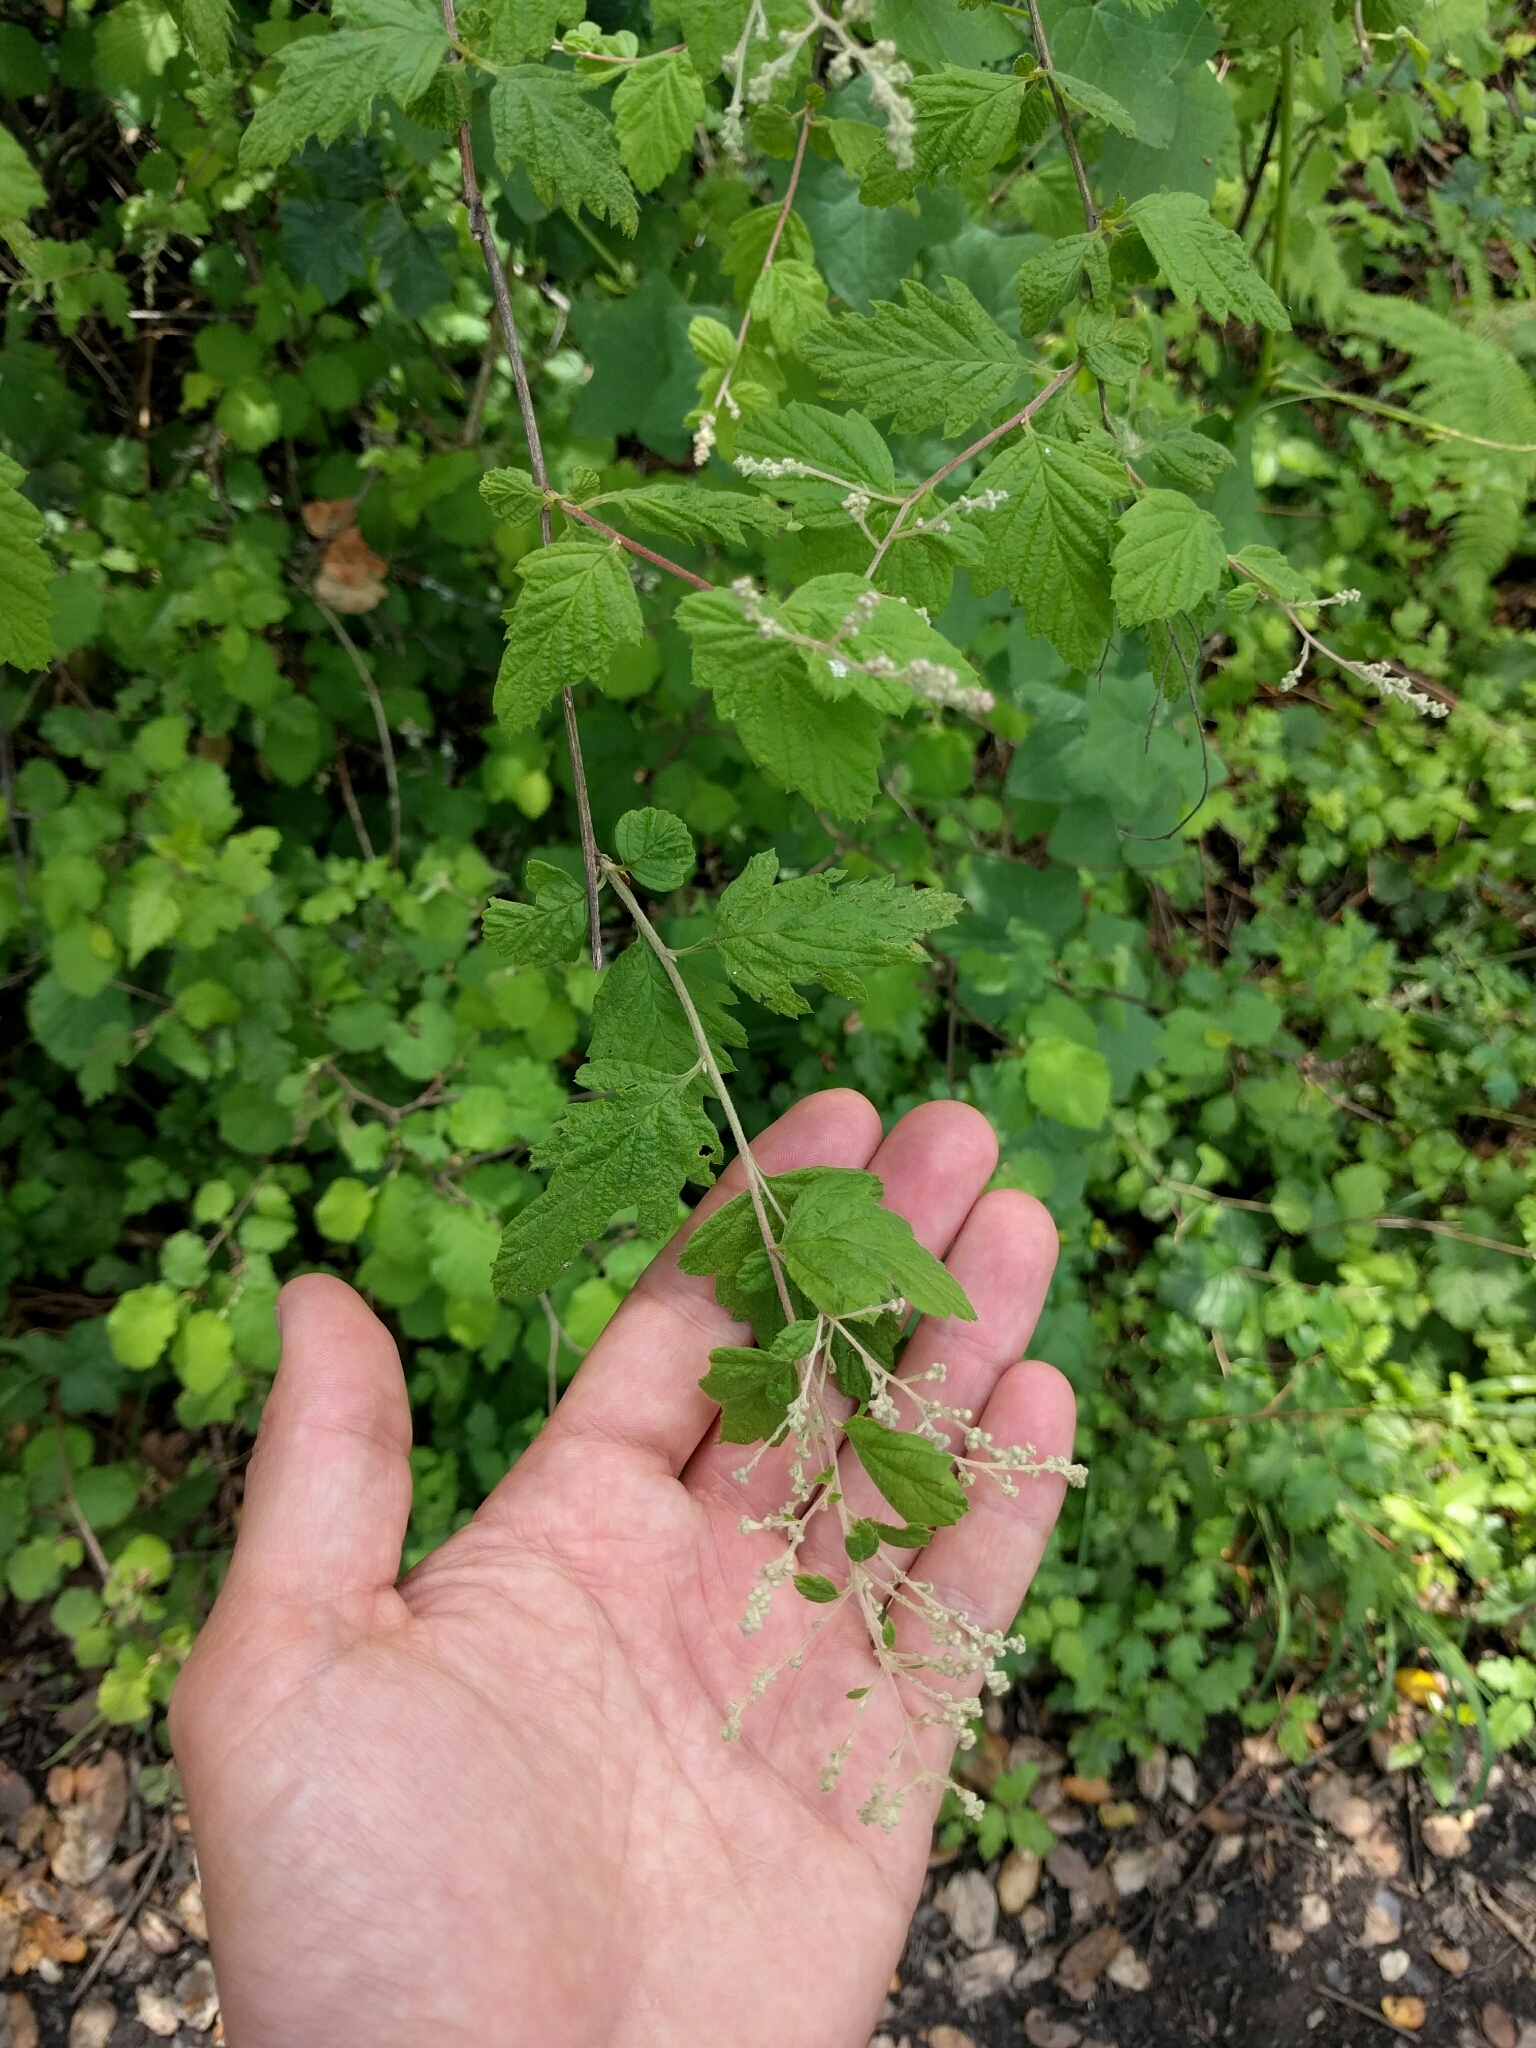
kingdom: Plantae
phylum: Tracheophyta
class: Magnoliopsida
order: Rosales
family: Rosaceae
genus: Holodiscus
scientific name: Holodiscus discolor
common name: Oceanspray
